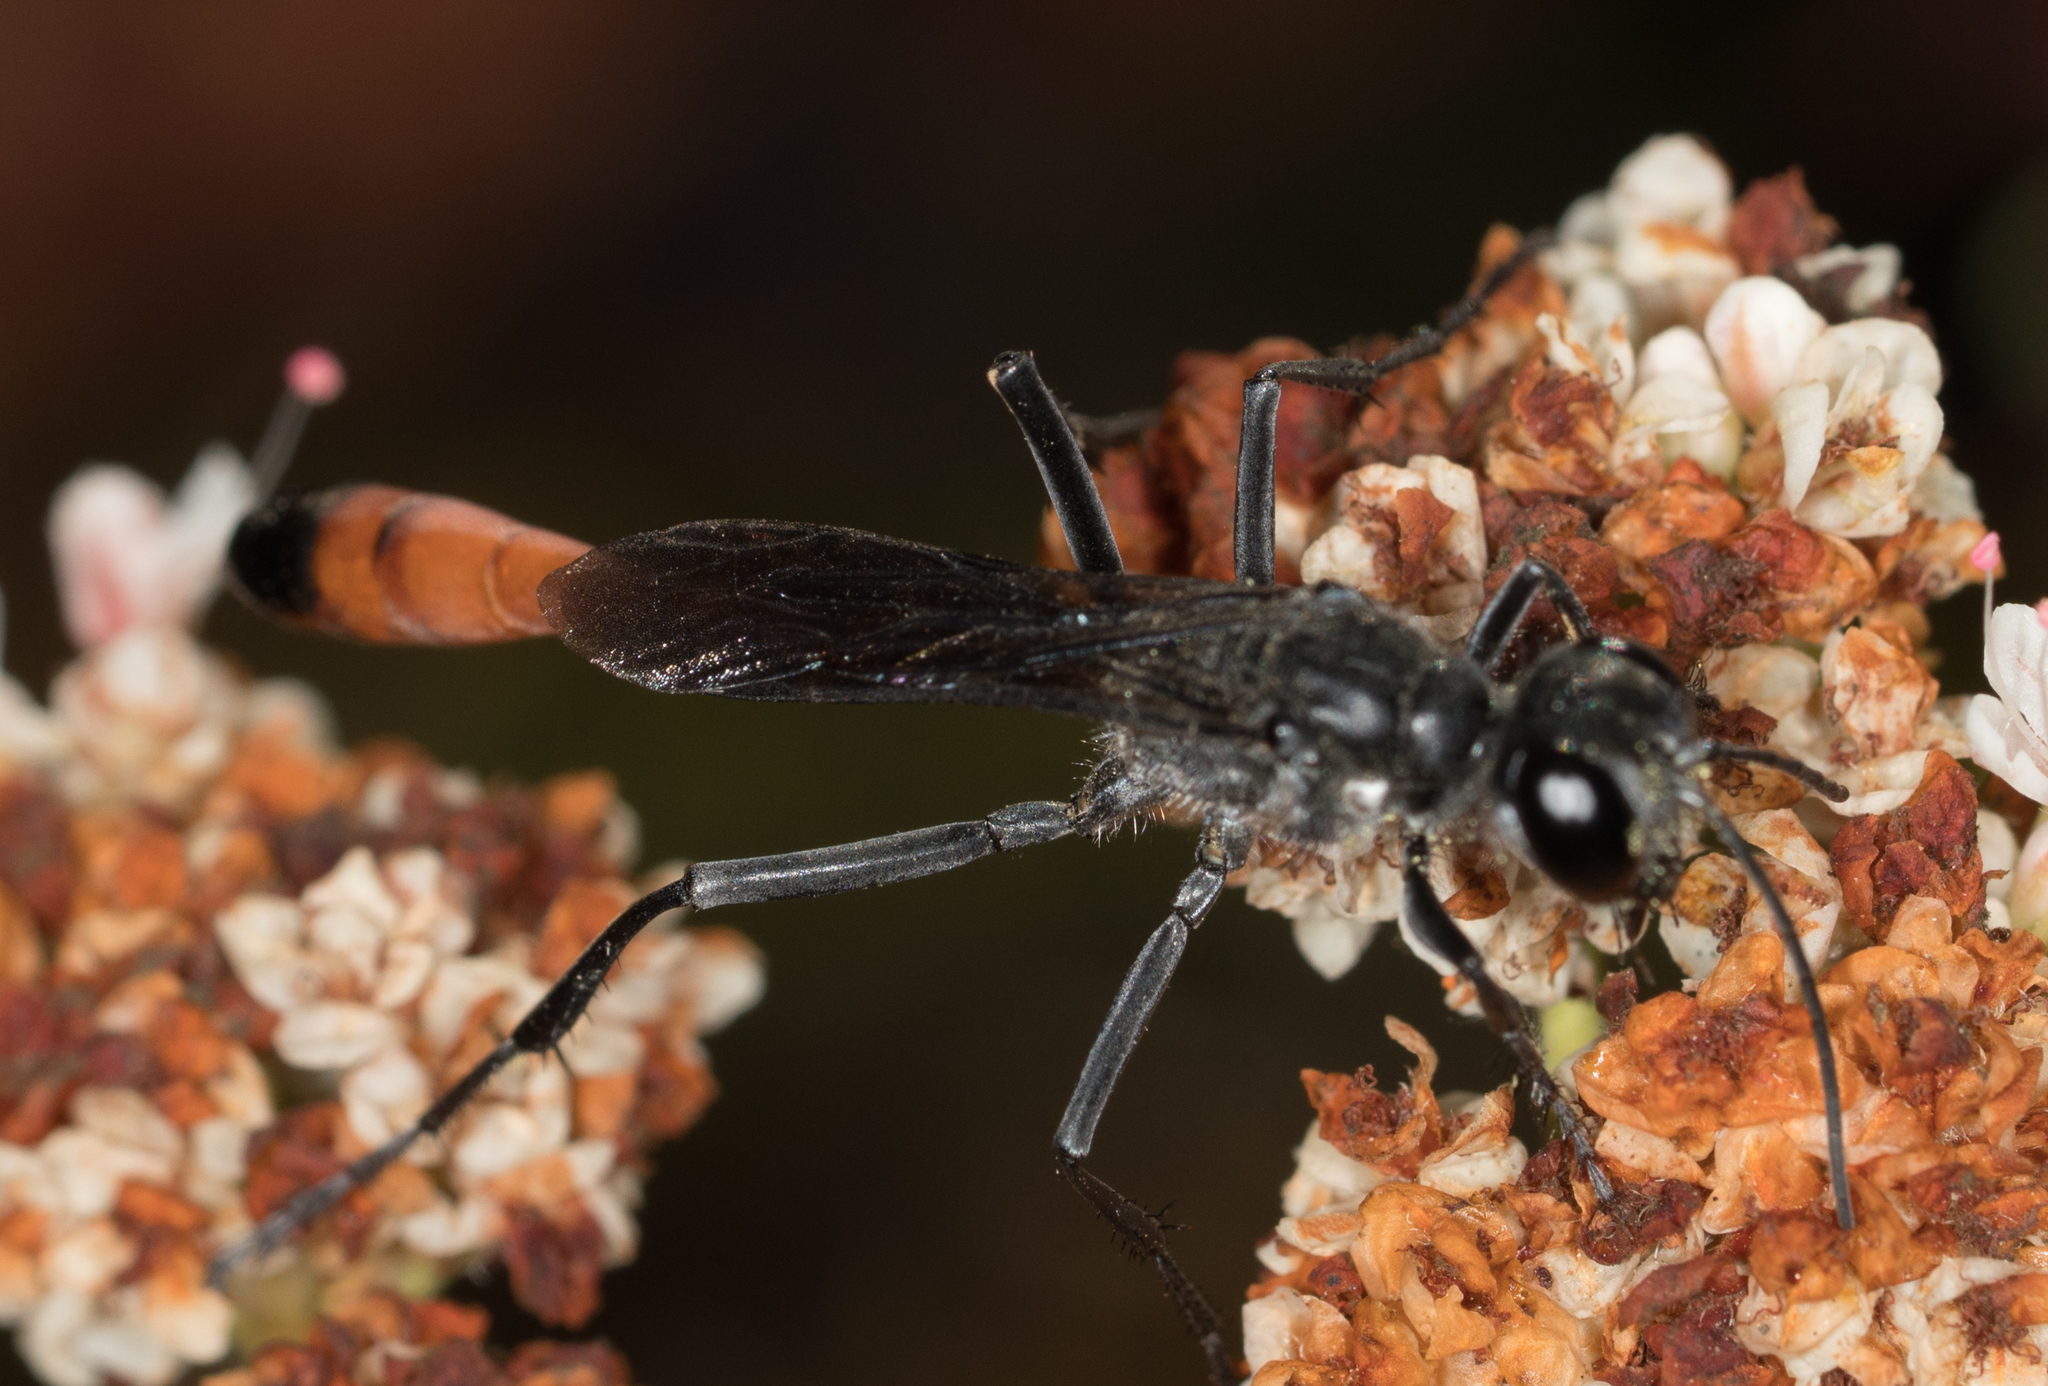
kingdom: Animalia
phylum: Arthropoda
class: Insecta
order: Hymenoptera
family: Sphecidae
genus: Ammophila
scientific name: Ammophila
